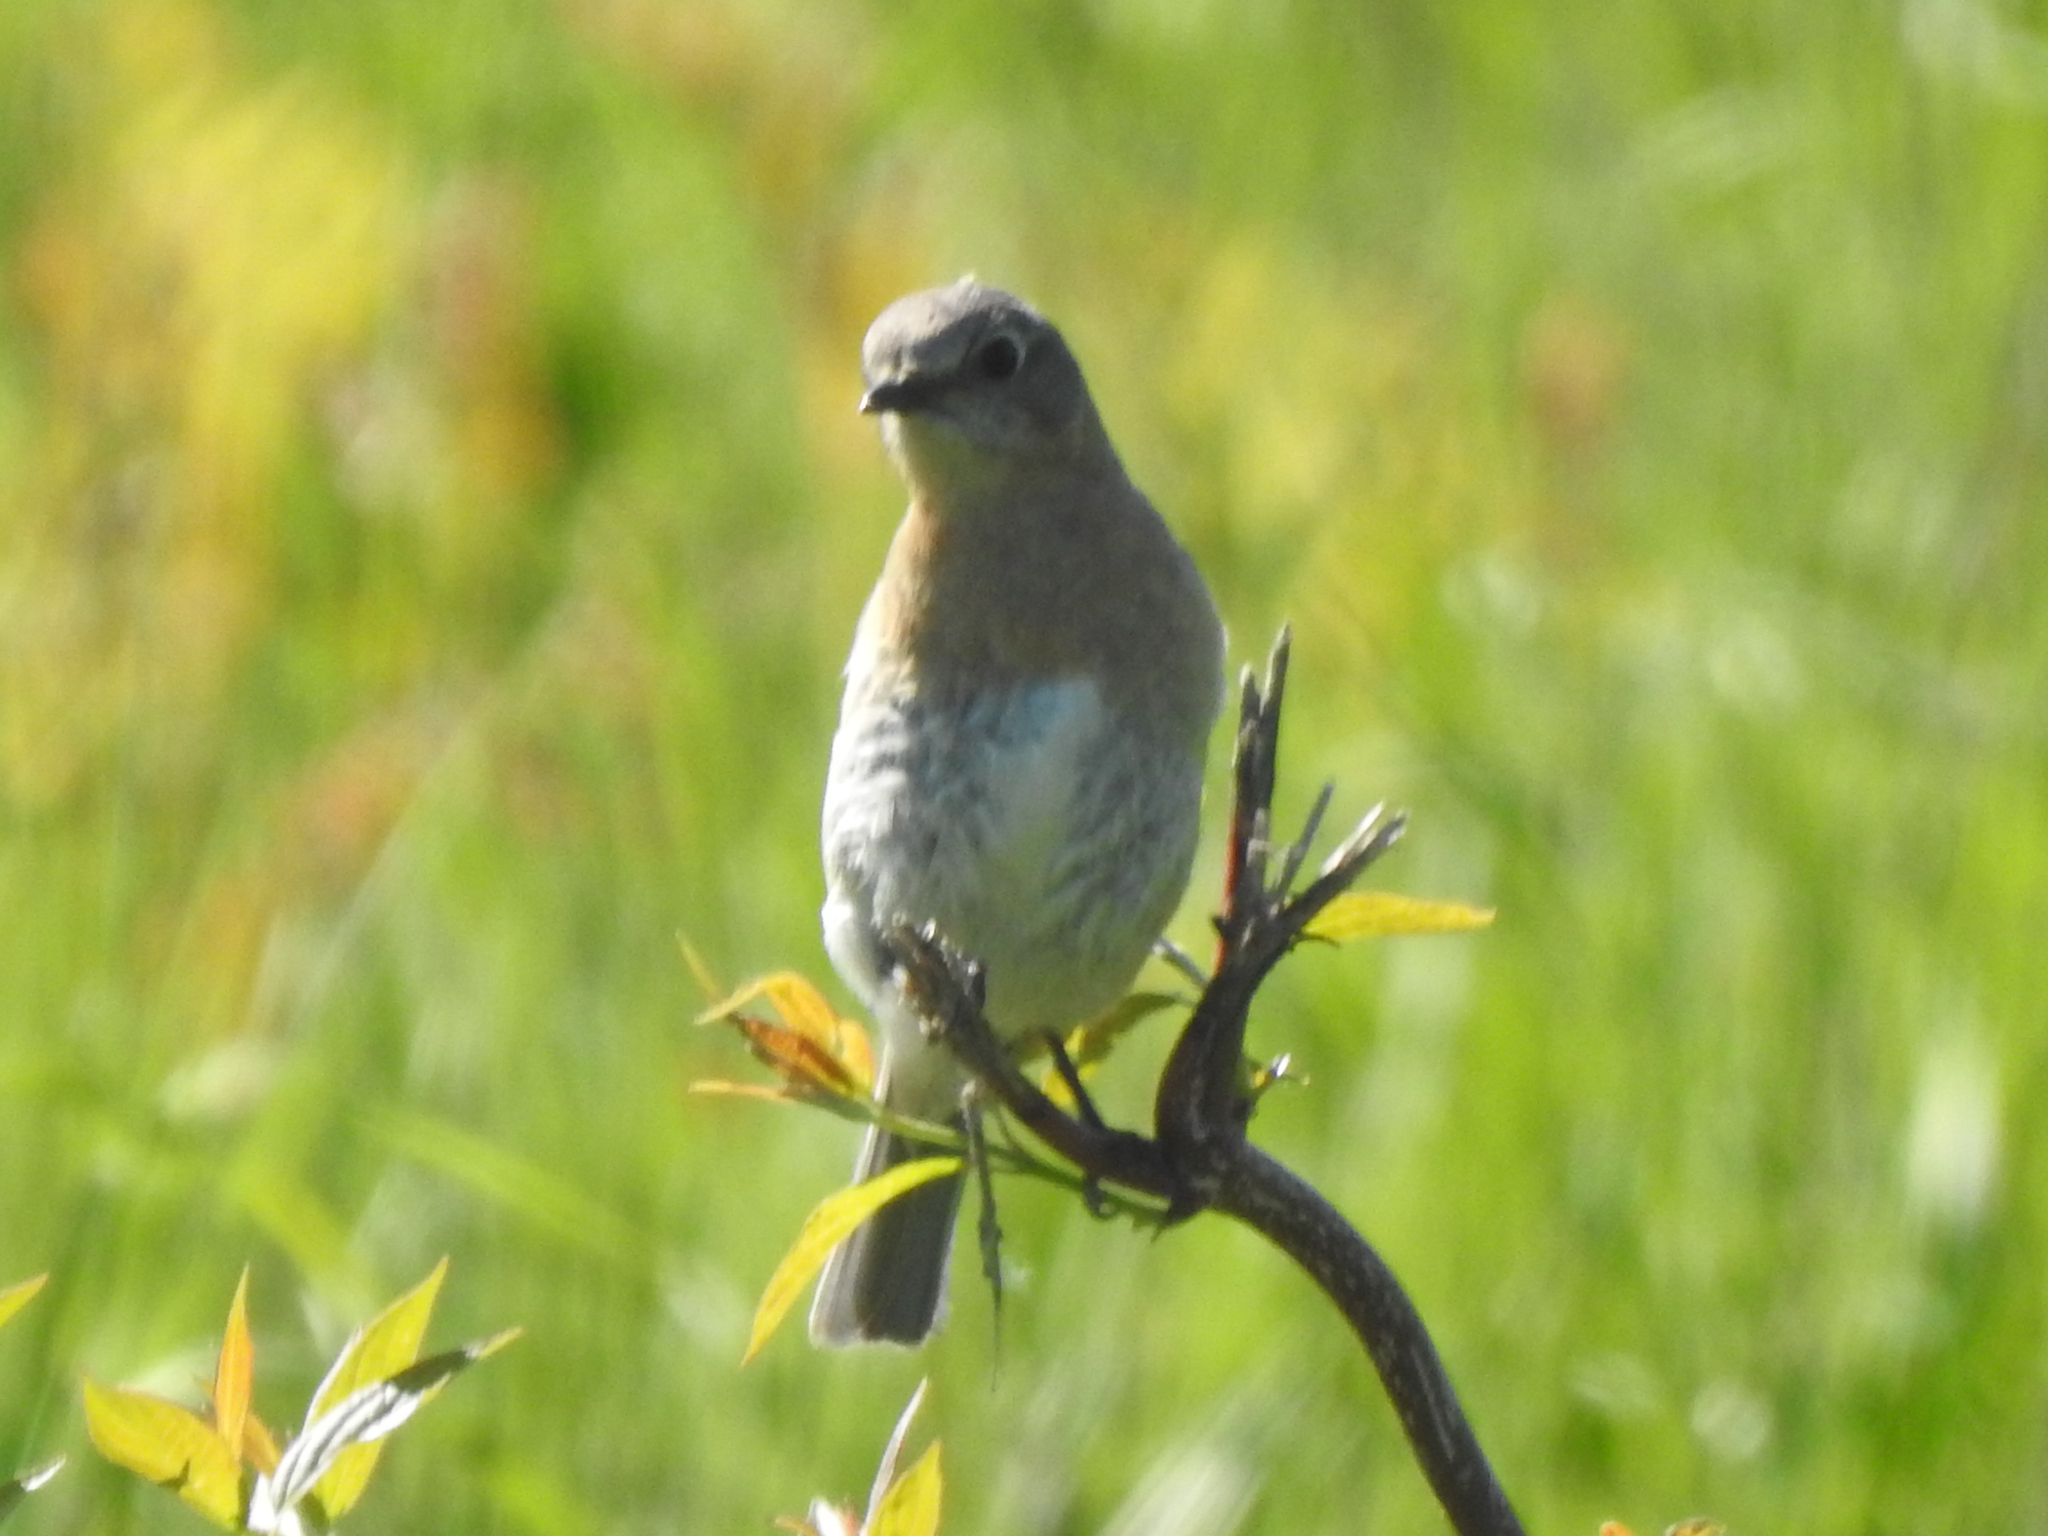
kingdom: Animalia
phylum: Chordata
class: Aves
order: Passeriformes
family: Turdidae
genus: Sialia
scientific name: Sialia sialis
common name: Eastern bluebird
